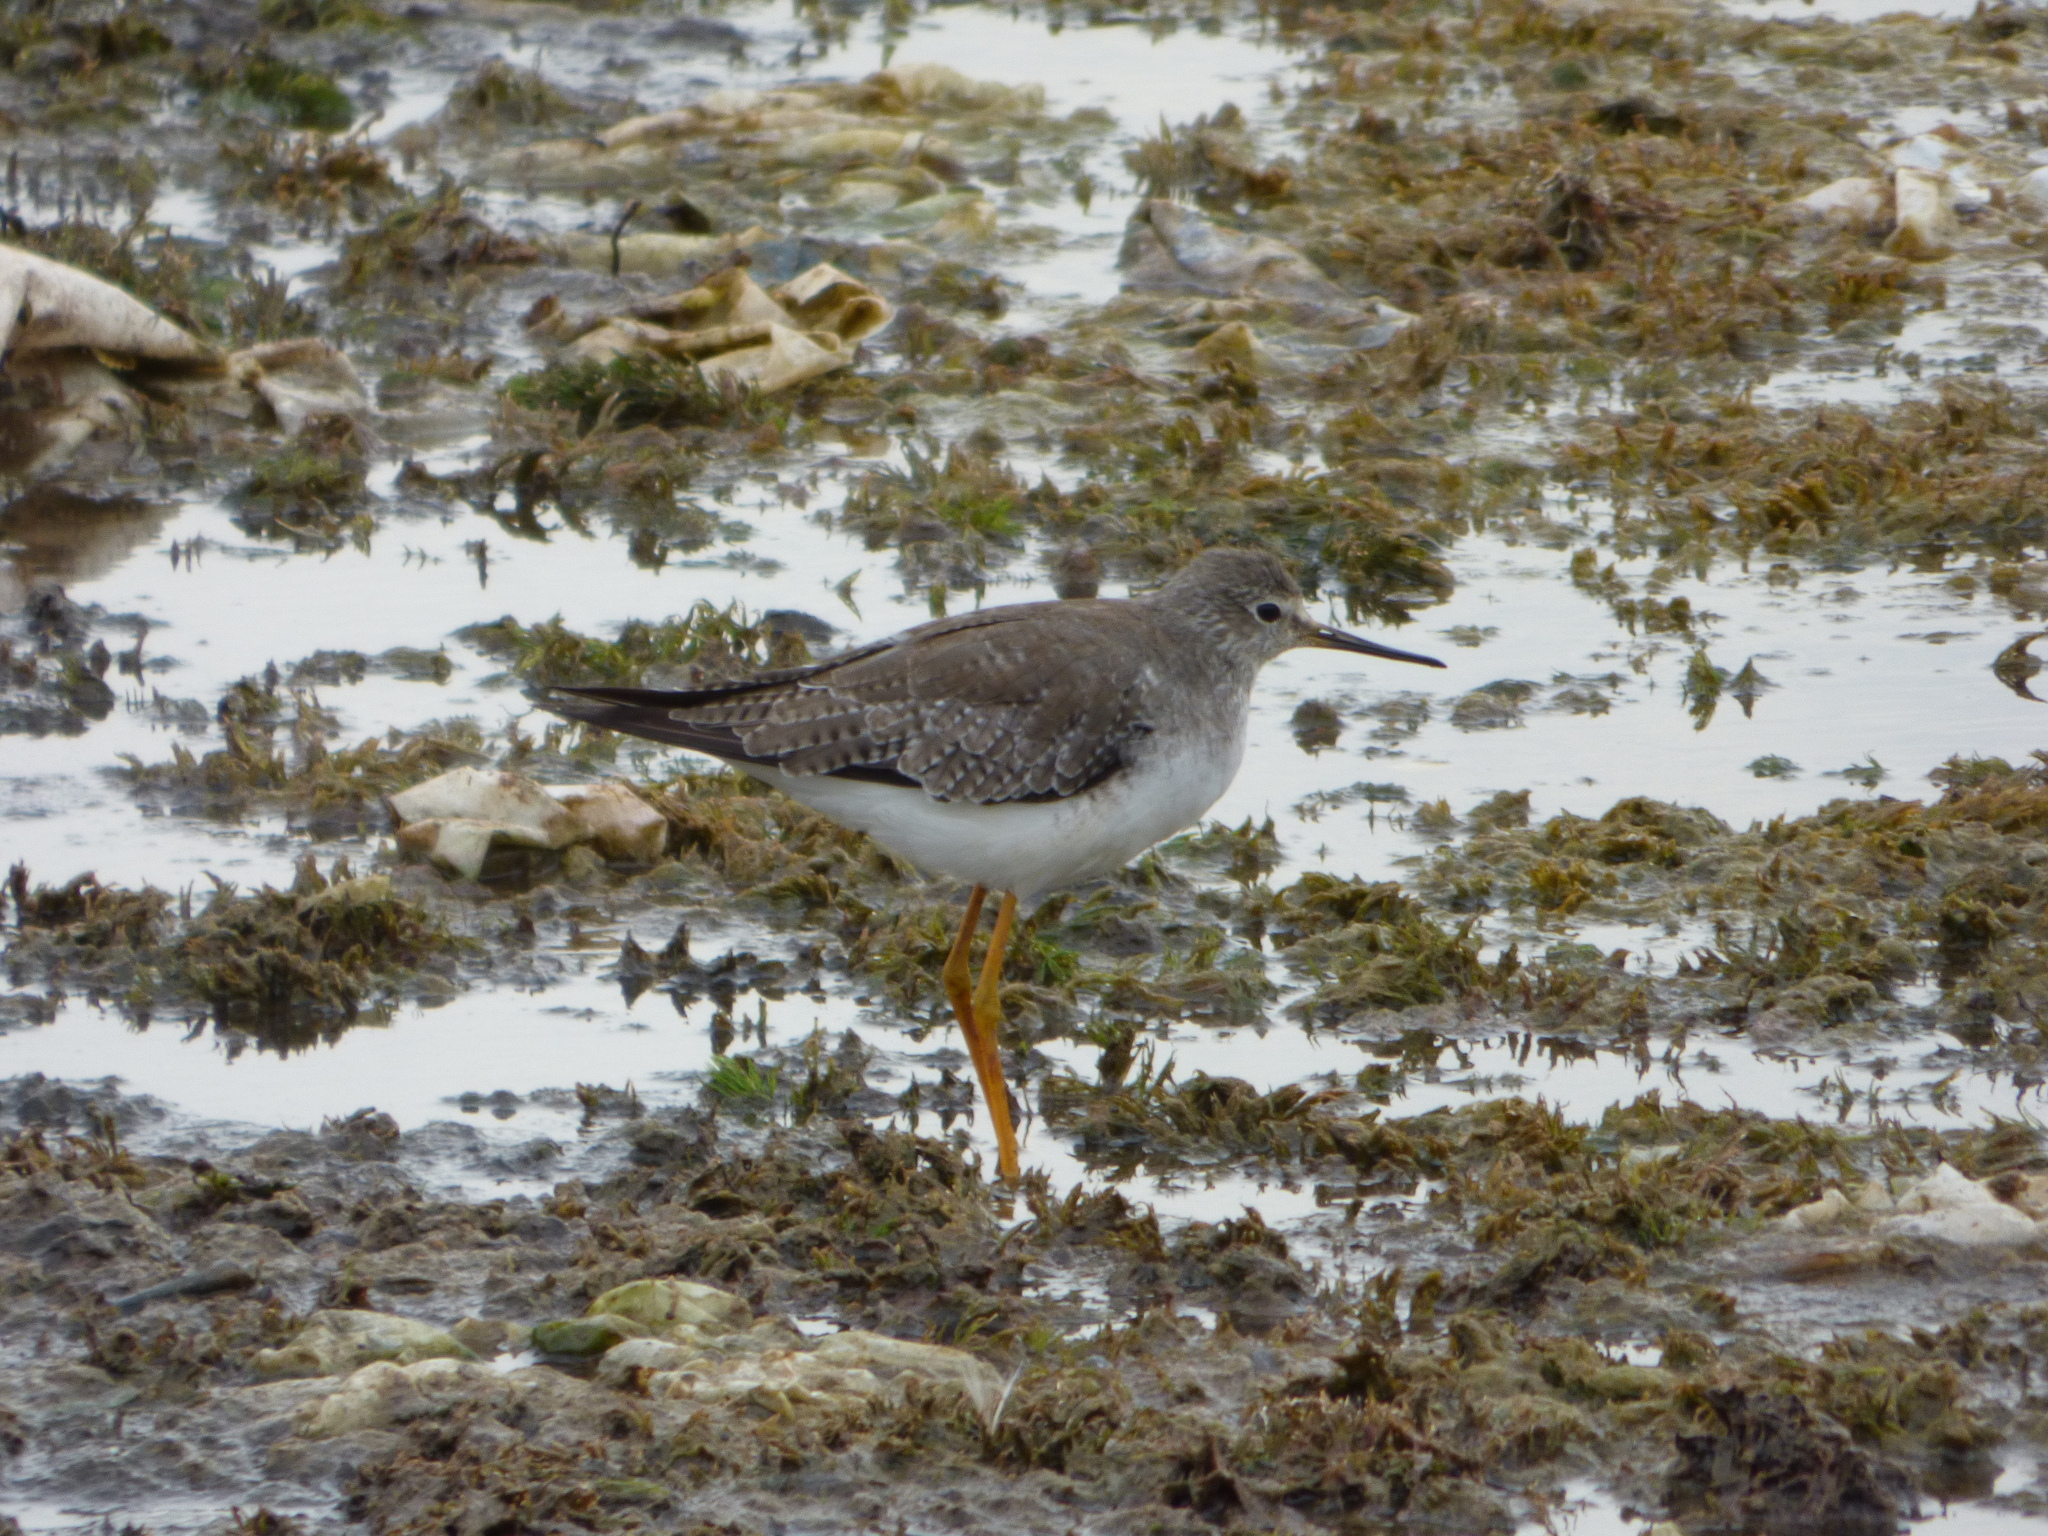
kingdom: Animalia
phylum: Chordata
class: Aves
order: Charadriiformes
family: Scolopacidae
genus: Tringa
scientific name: Tringa flavipes
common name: Lesser yellowlegs
